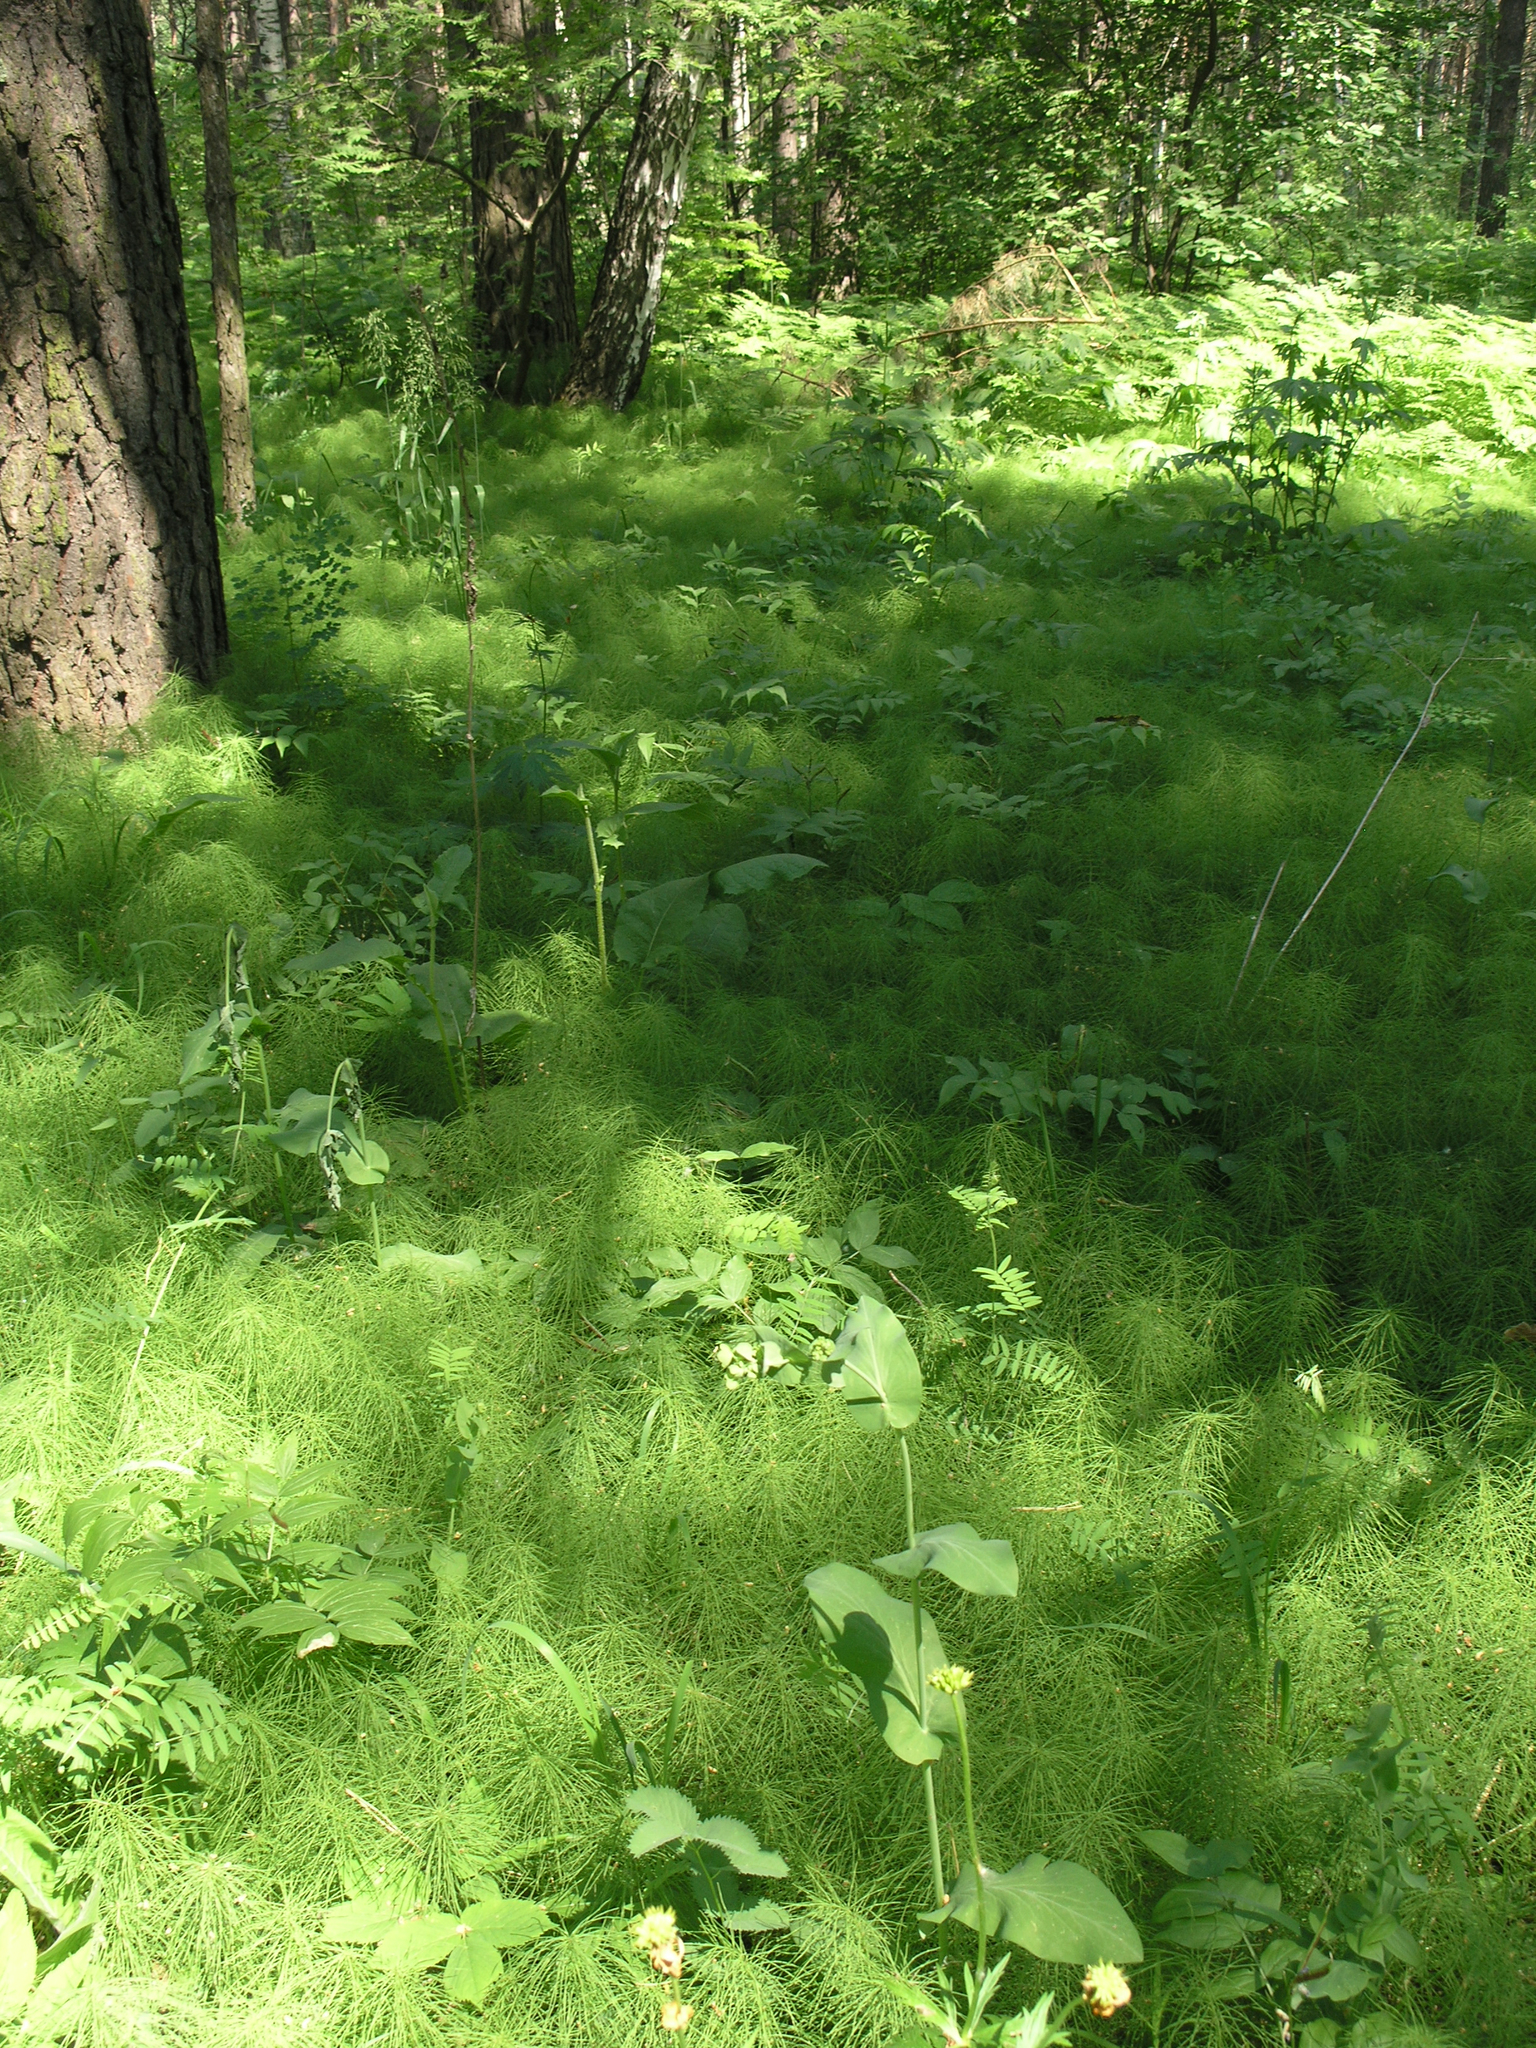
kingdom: Plantae
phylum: Tracheophyta
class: Polypodiopsida
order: Equisetales
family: Equisetaceae
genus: Equisetum
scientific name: Equisetum pratense
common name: Meadow horsetail
